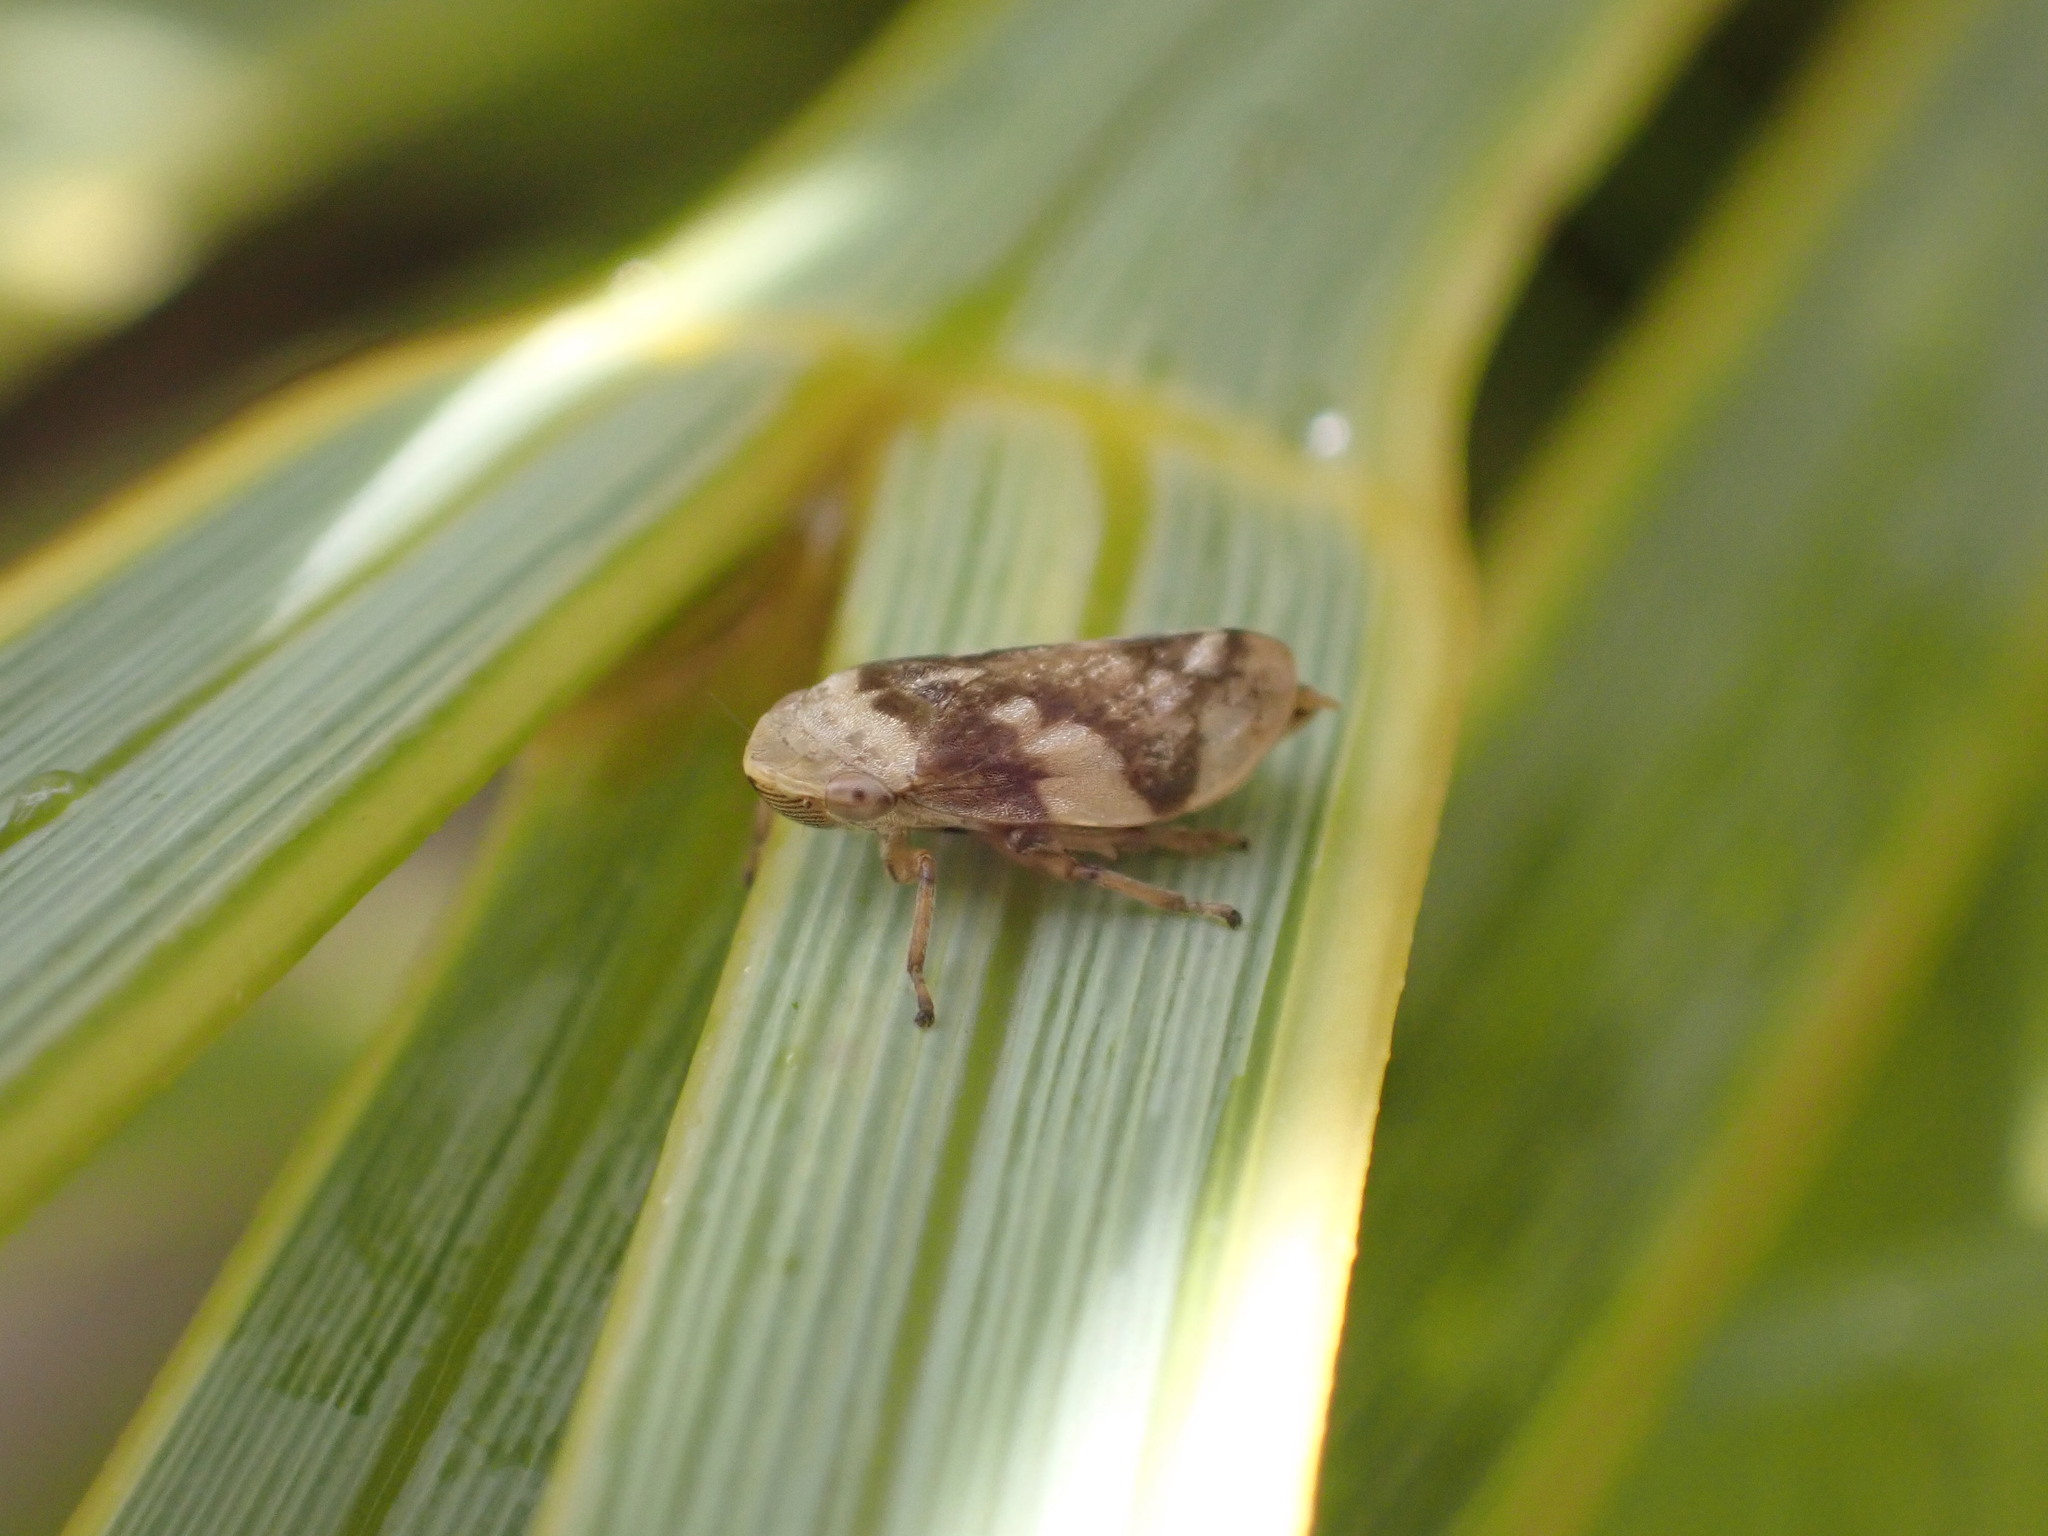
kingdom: Animalia
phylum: Arthropoda
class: Insecta
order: Hemiptera
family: Aphrophoridae
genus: Philaenus
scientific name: Philaenus spumarius
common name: Meadow spittlebug
